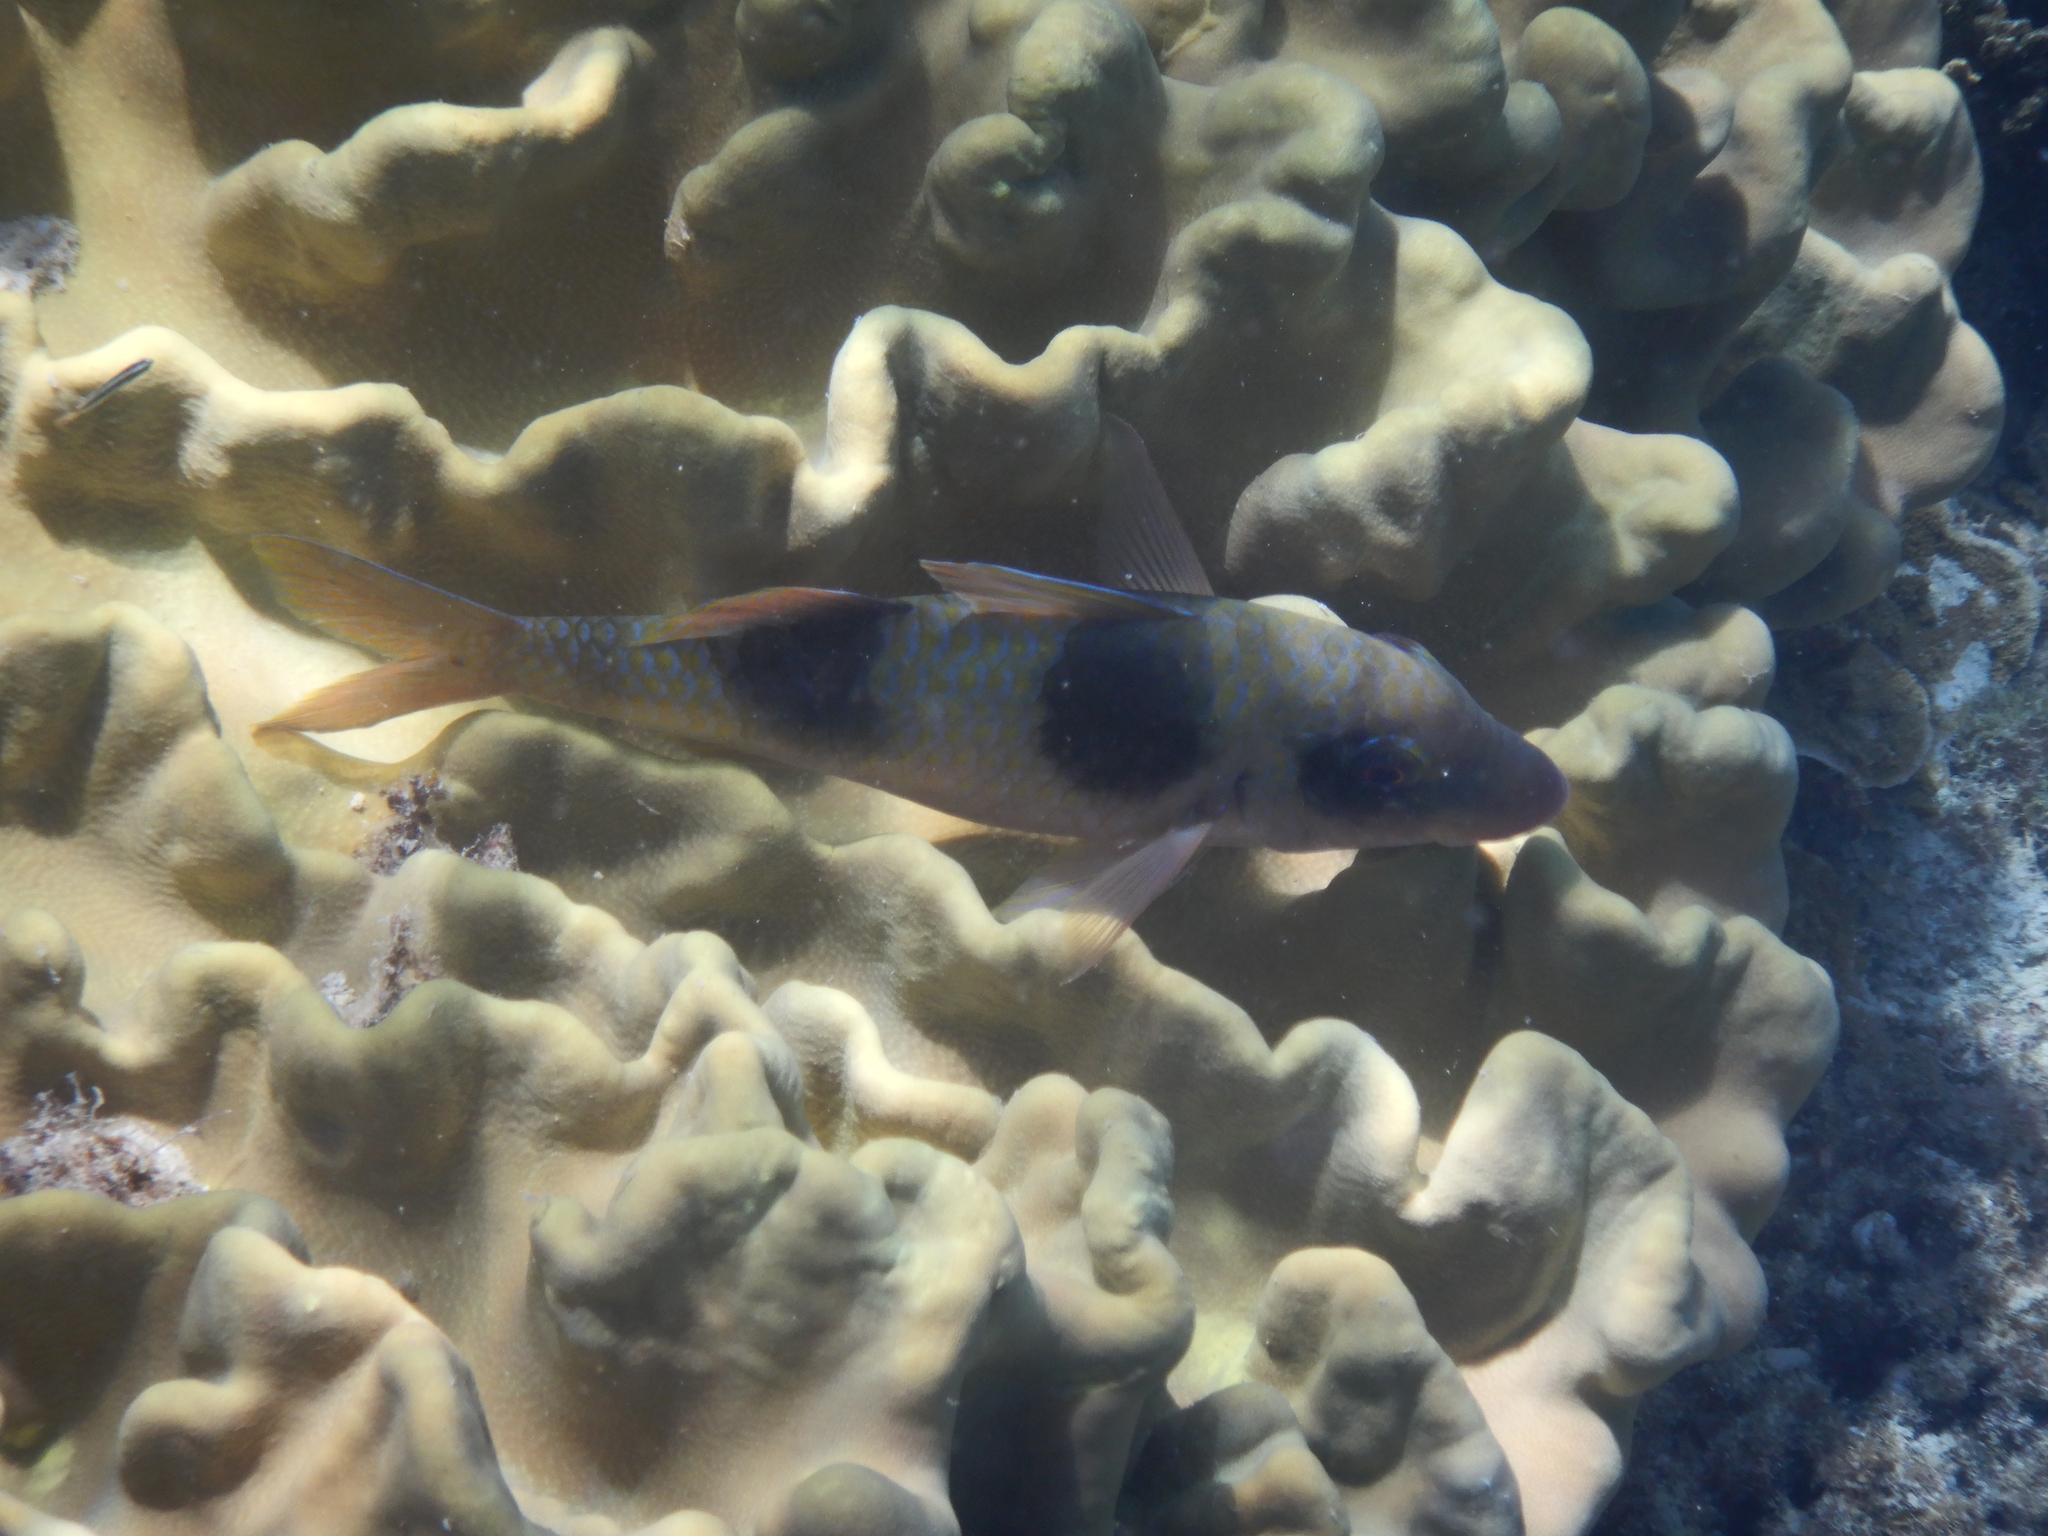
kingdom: Animalia
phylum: Chordata
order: Perciformes
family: Mullidae
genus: Parupeneus
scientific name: Parupeneus crassilabris
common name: Doublebar goatfish
